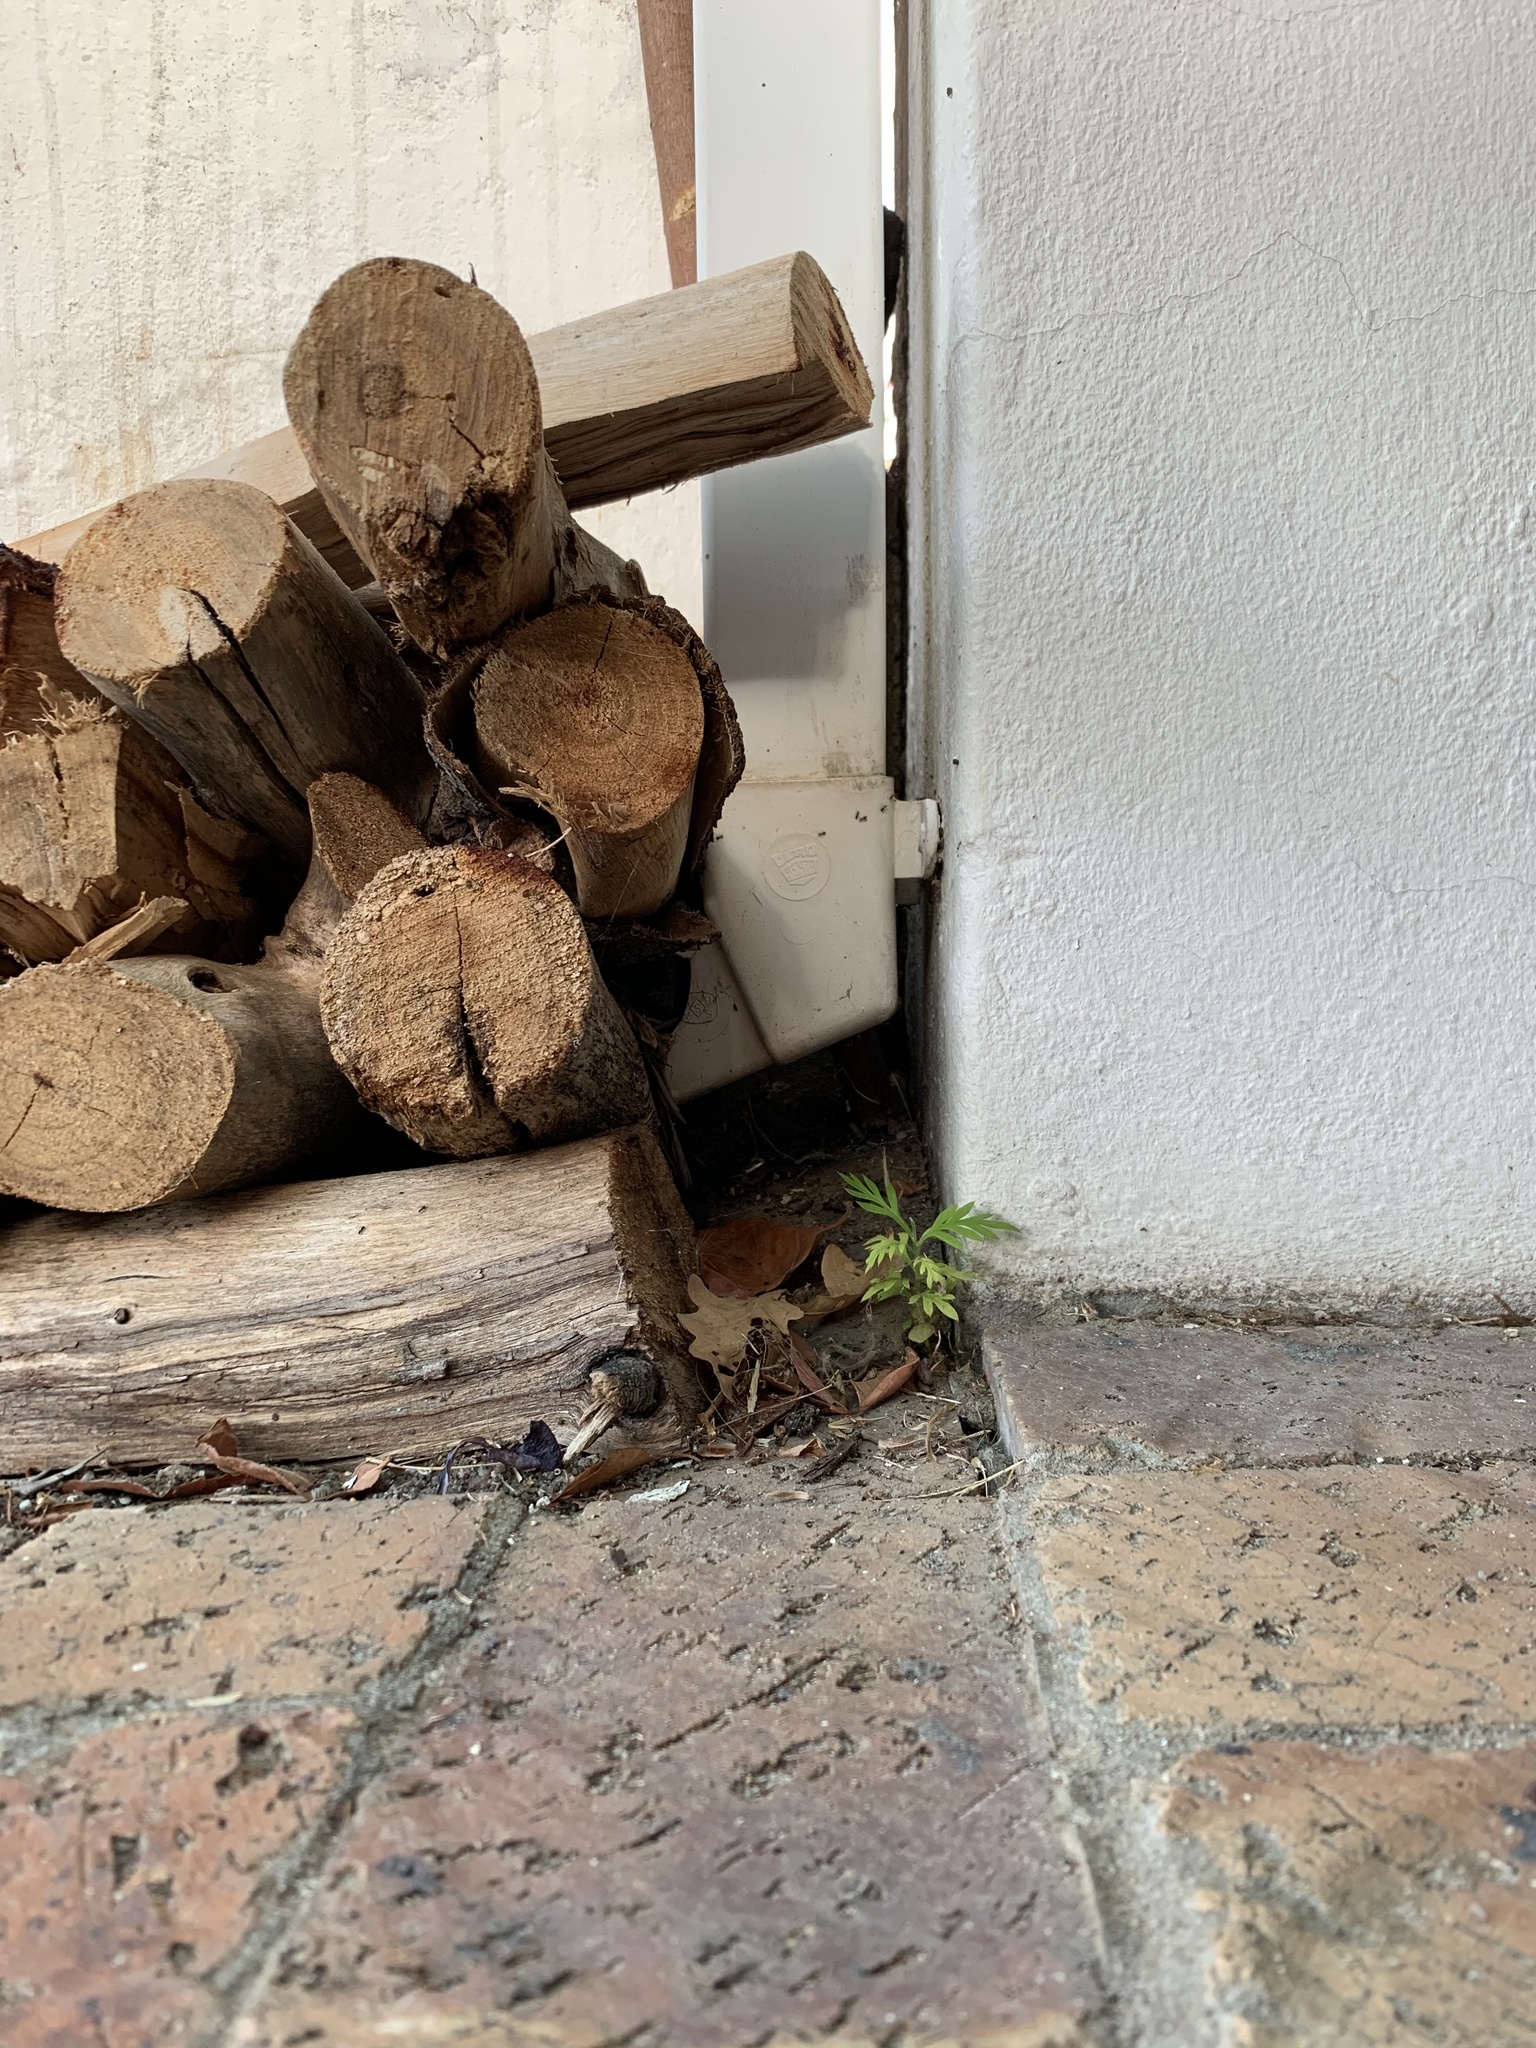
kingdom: Plantae
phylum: Tracheophyta
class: Magnoliopsida
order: Proteales
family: Proteaceae
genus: Grevillea
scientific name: Grevillea robusta
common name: Silkoak
